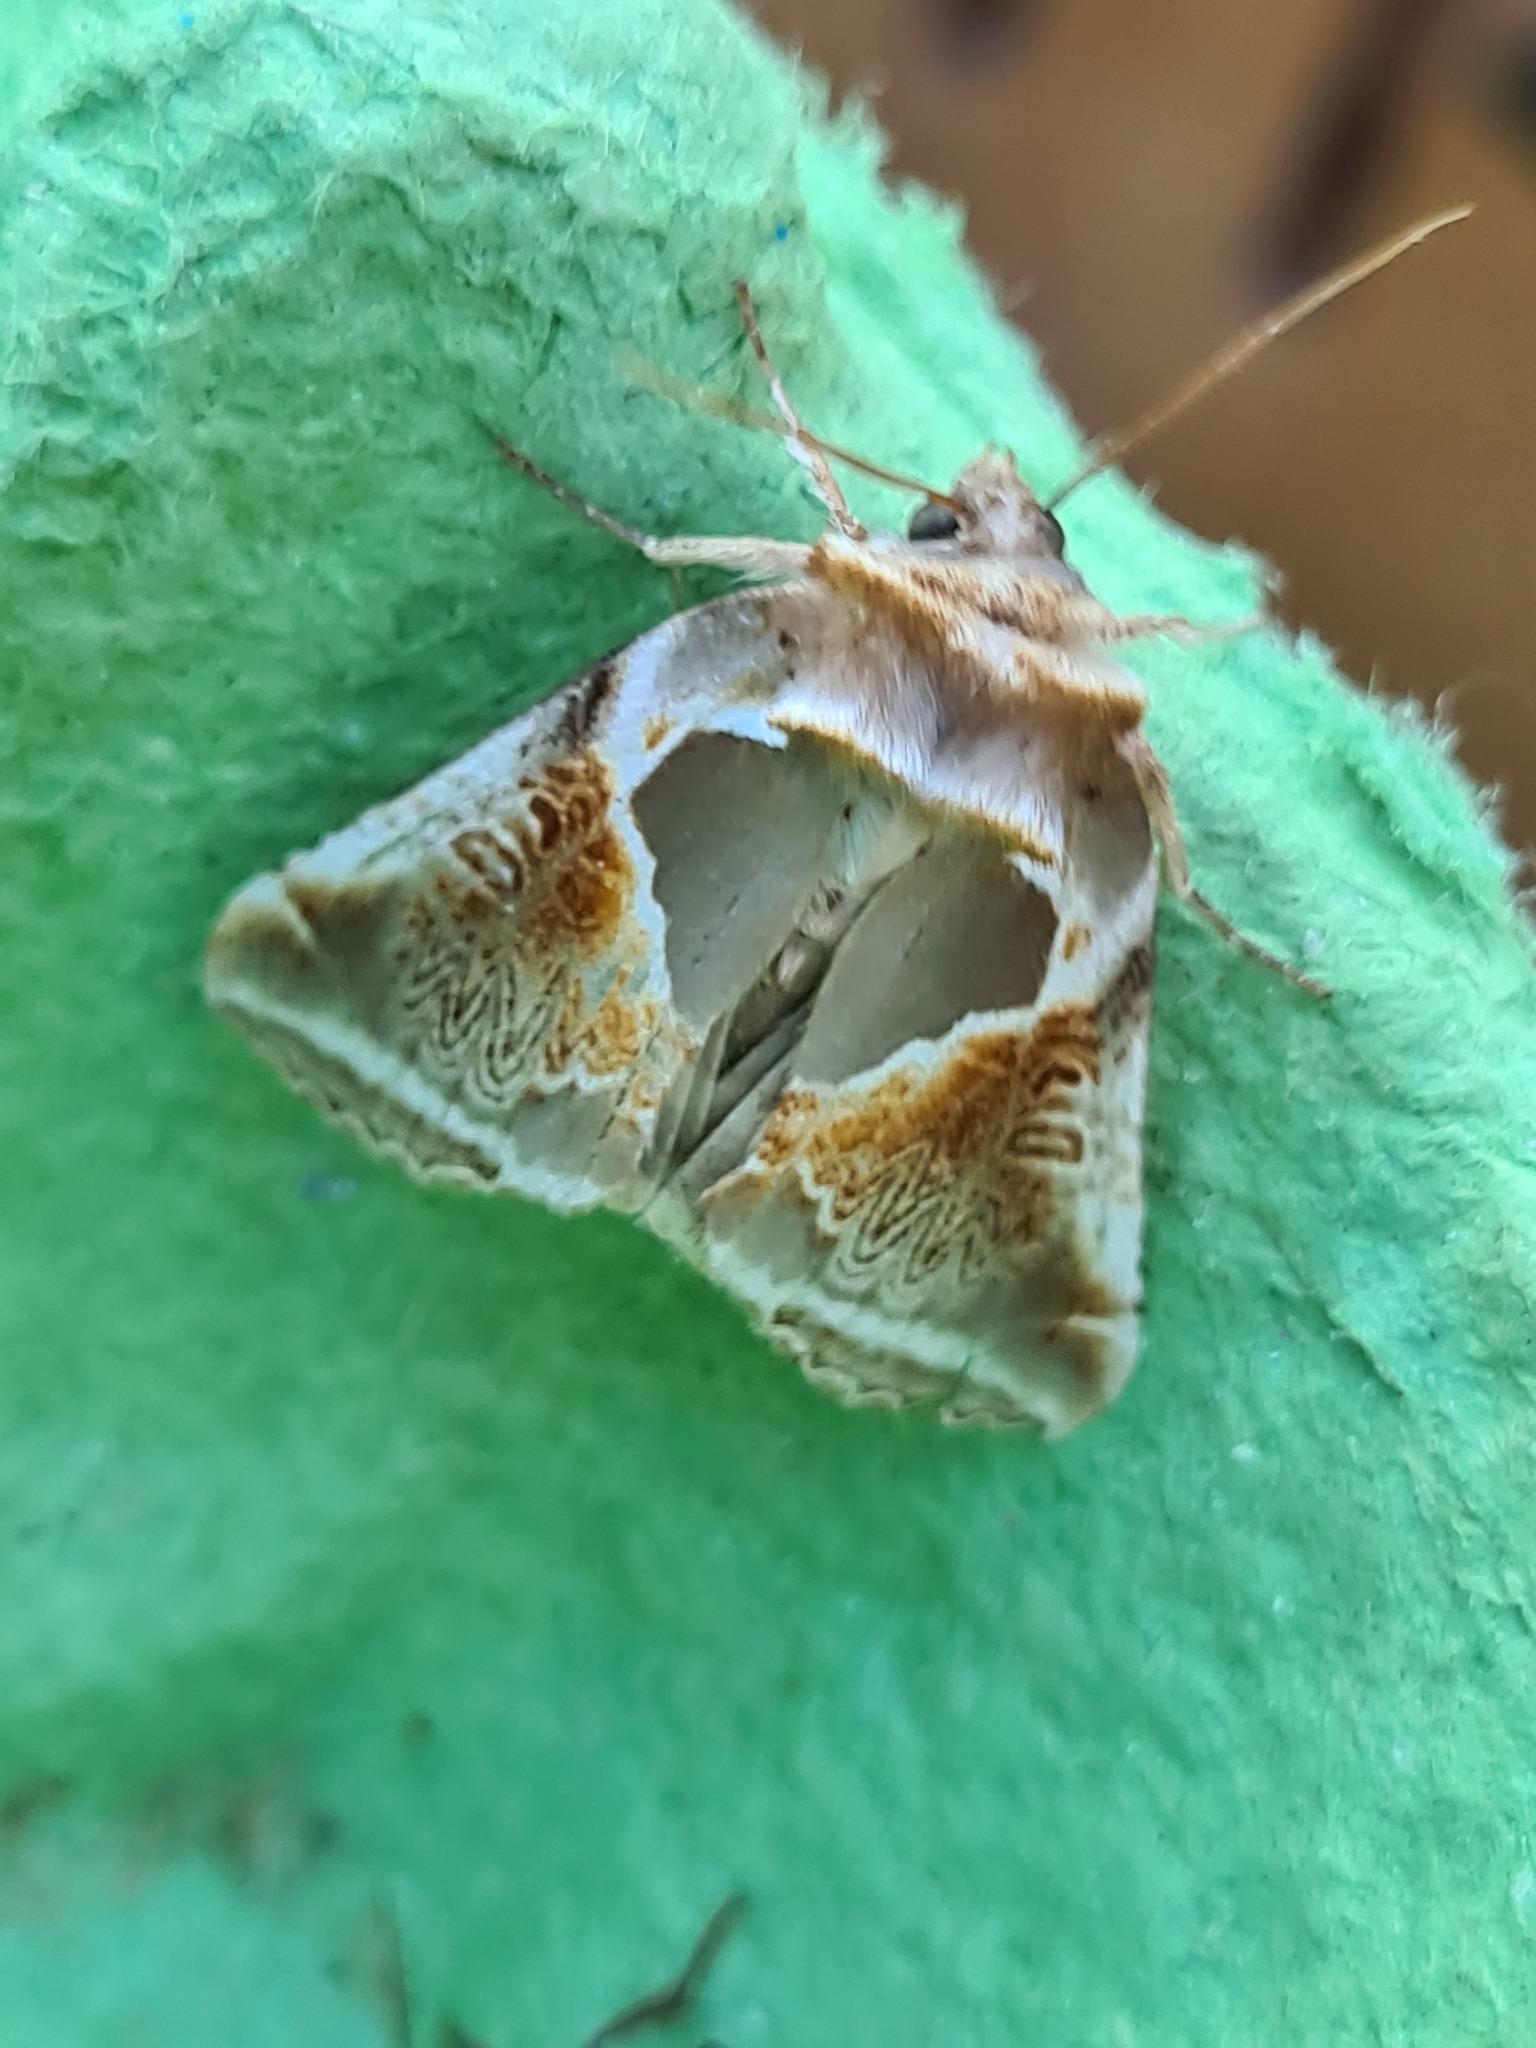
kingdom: Animalia
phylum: Arthropoda
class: Insecta
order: Lepidoptera
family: Drepanidae
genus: Habrosyne
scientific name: Habrosyne pyritoides
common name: Buff arches
